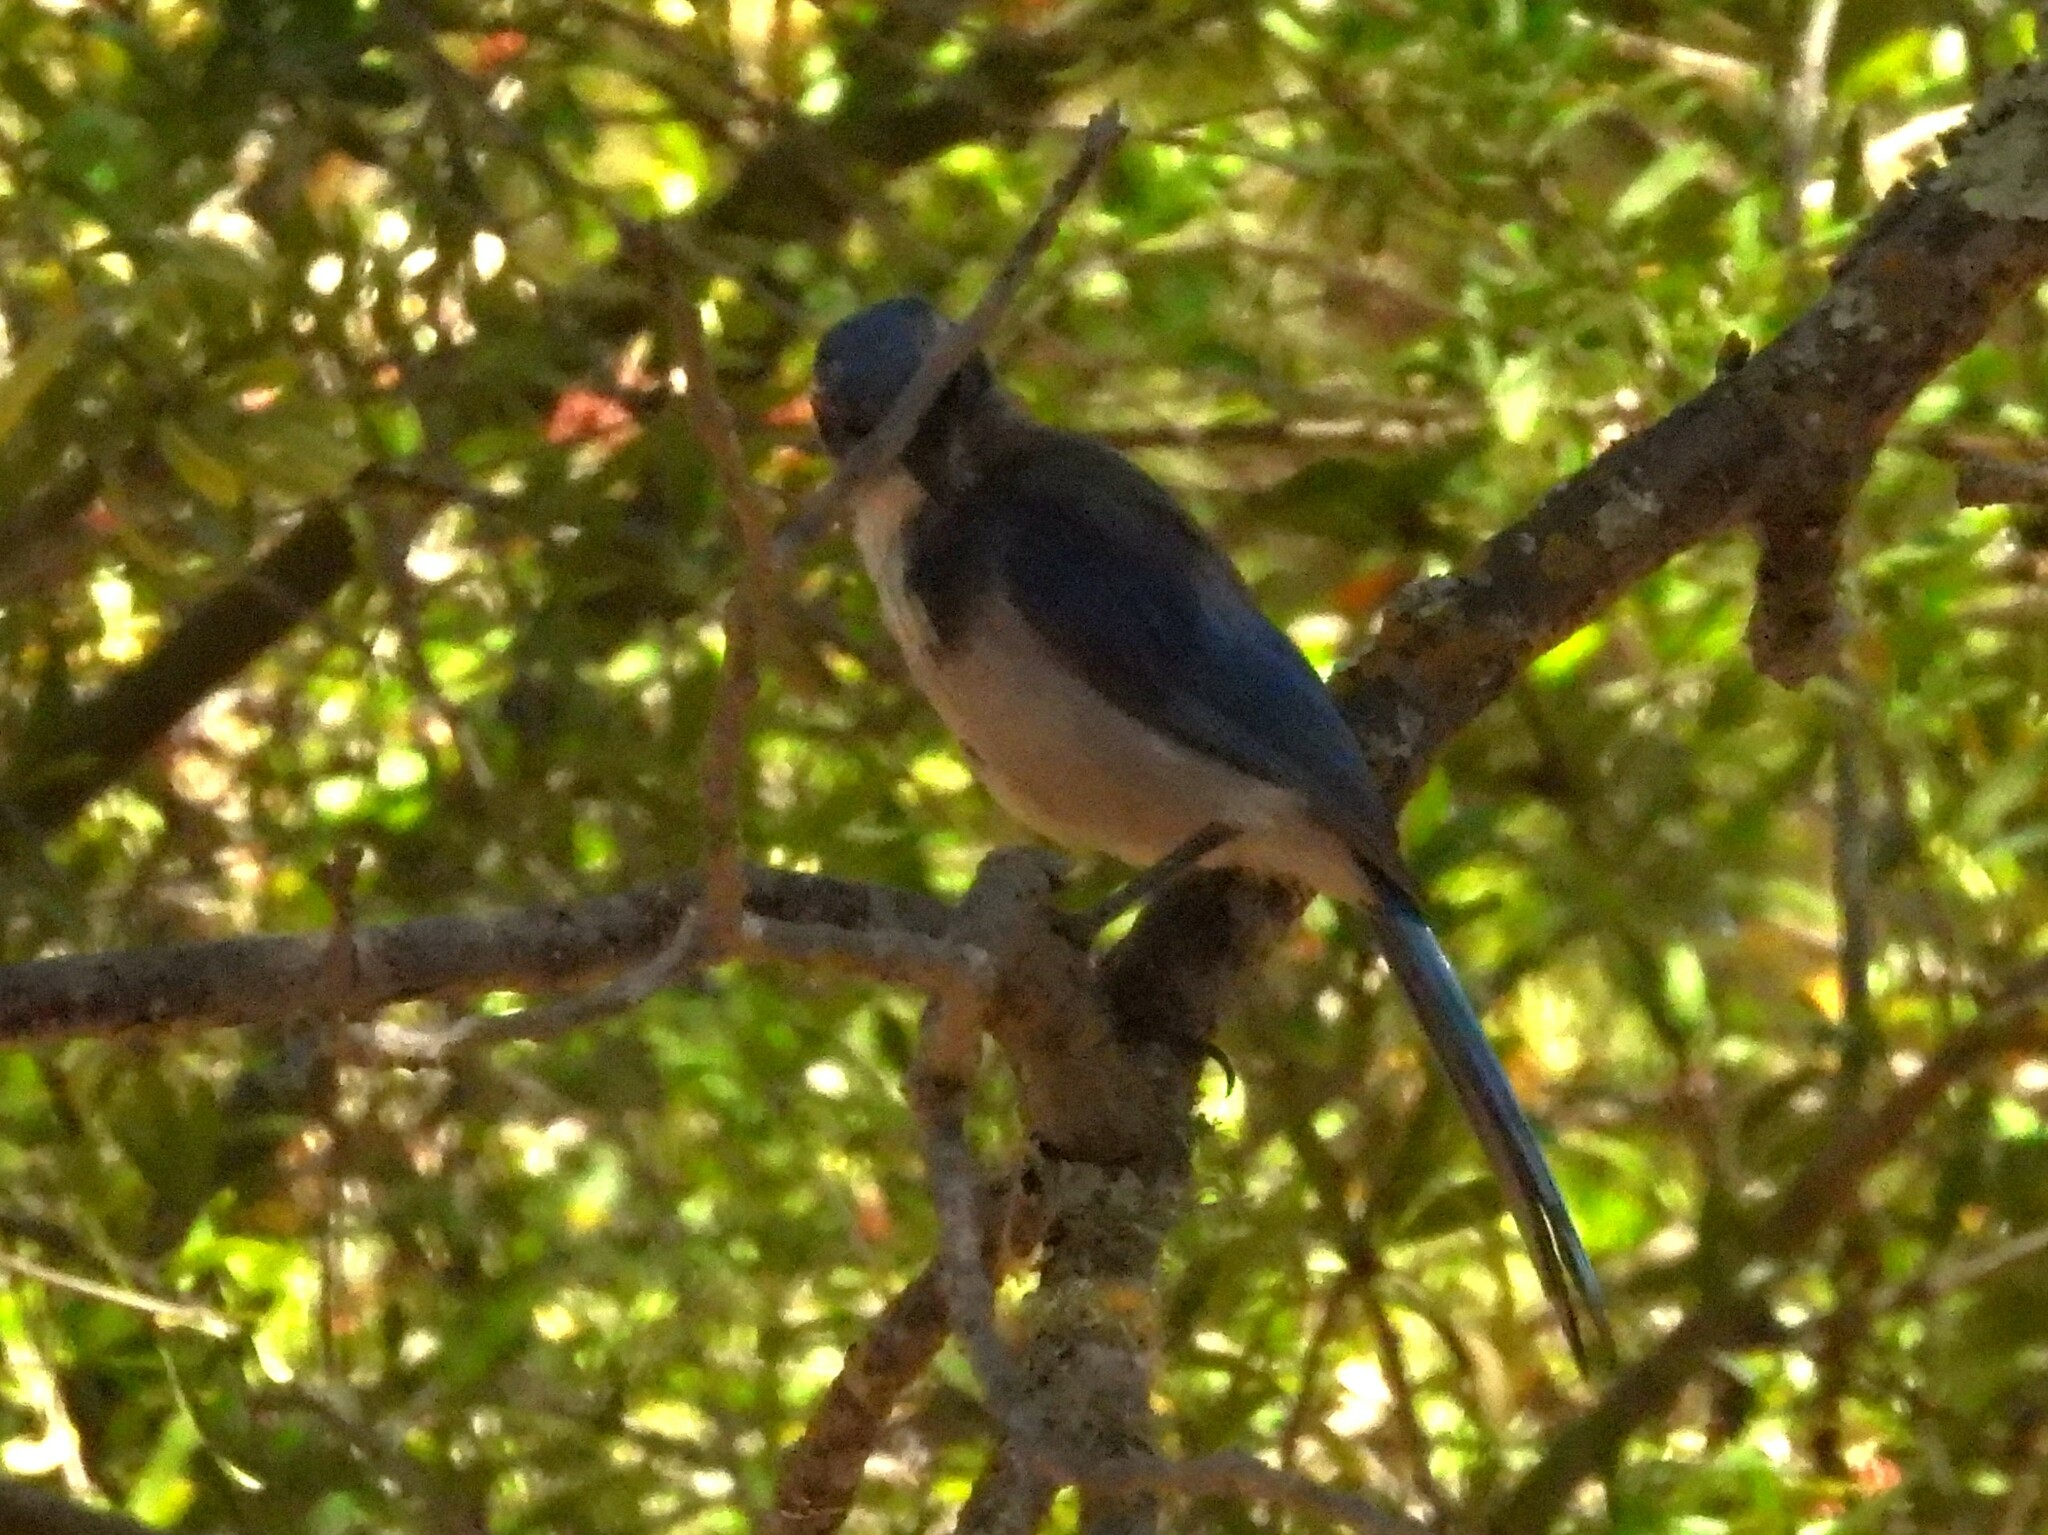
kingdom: Animalia
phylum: Chordata
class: Aves
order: Passeriformes
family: Corvidae
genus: Aphelocoma
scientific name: Aphelocoma californica
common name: California scrub-jay
